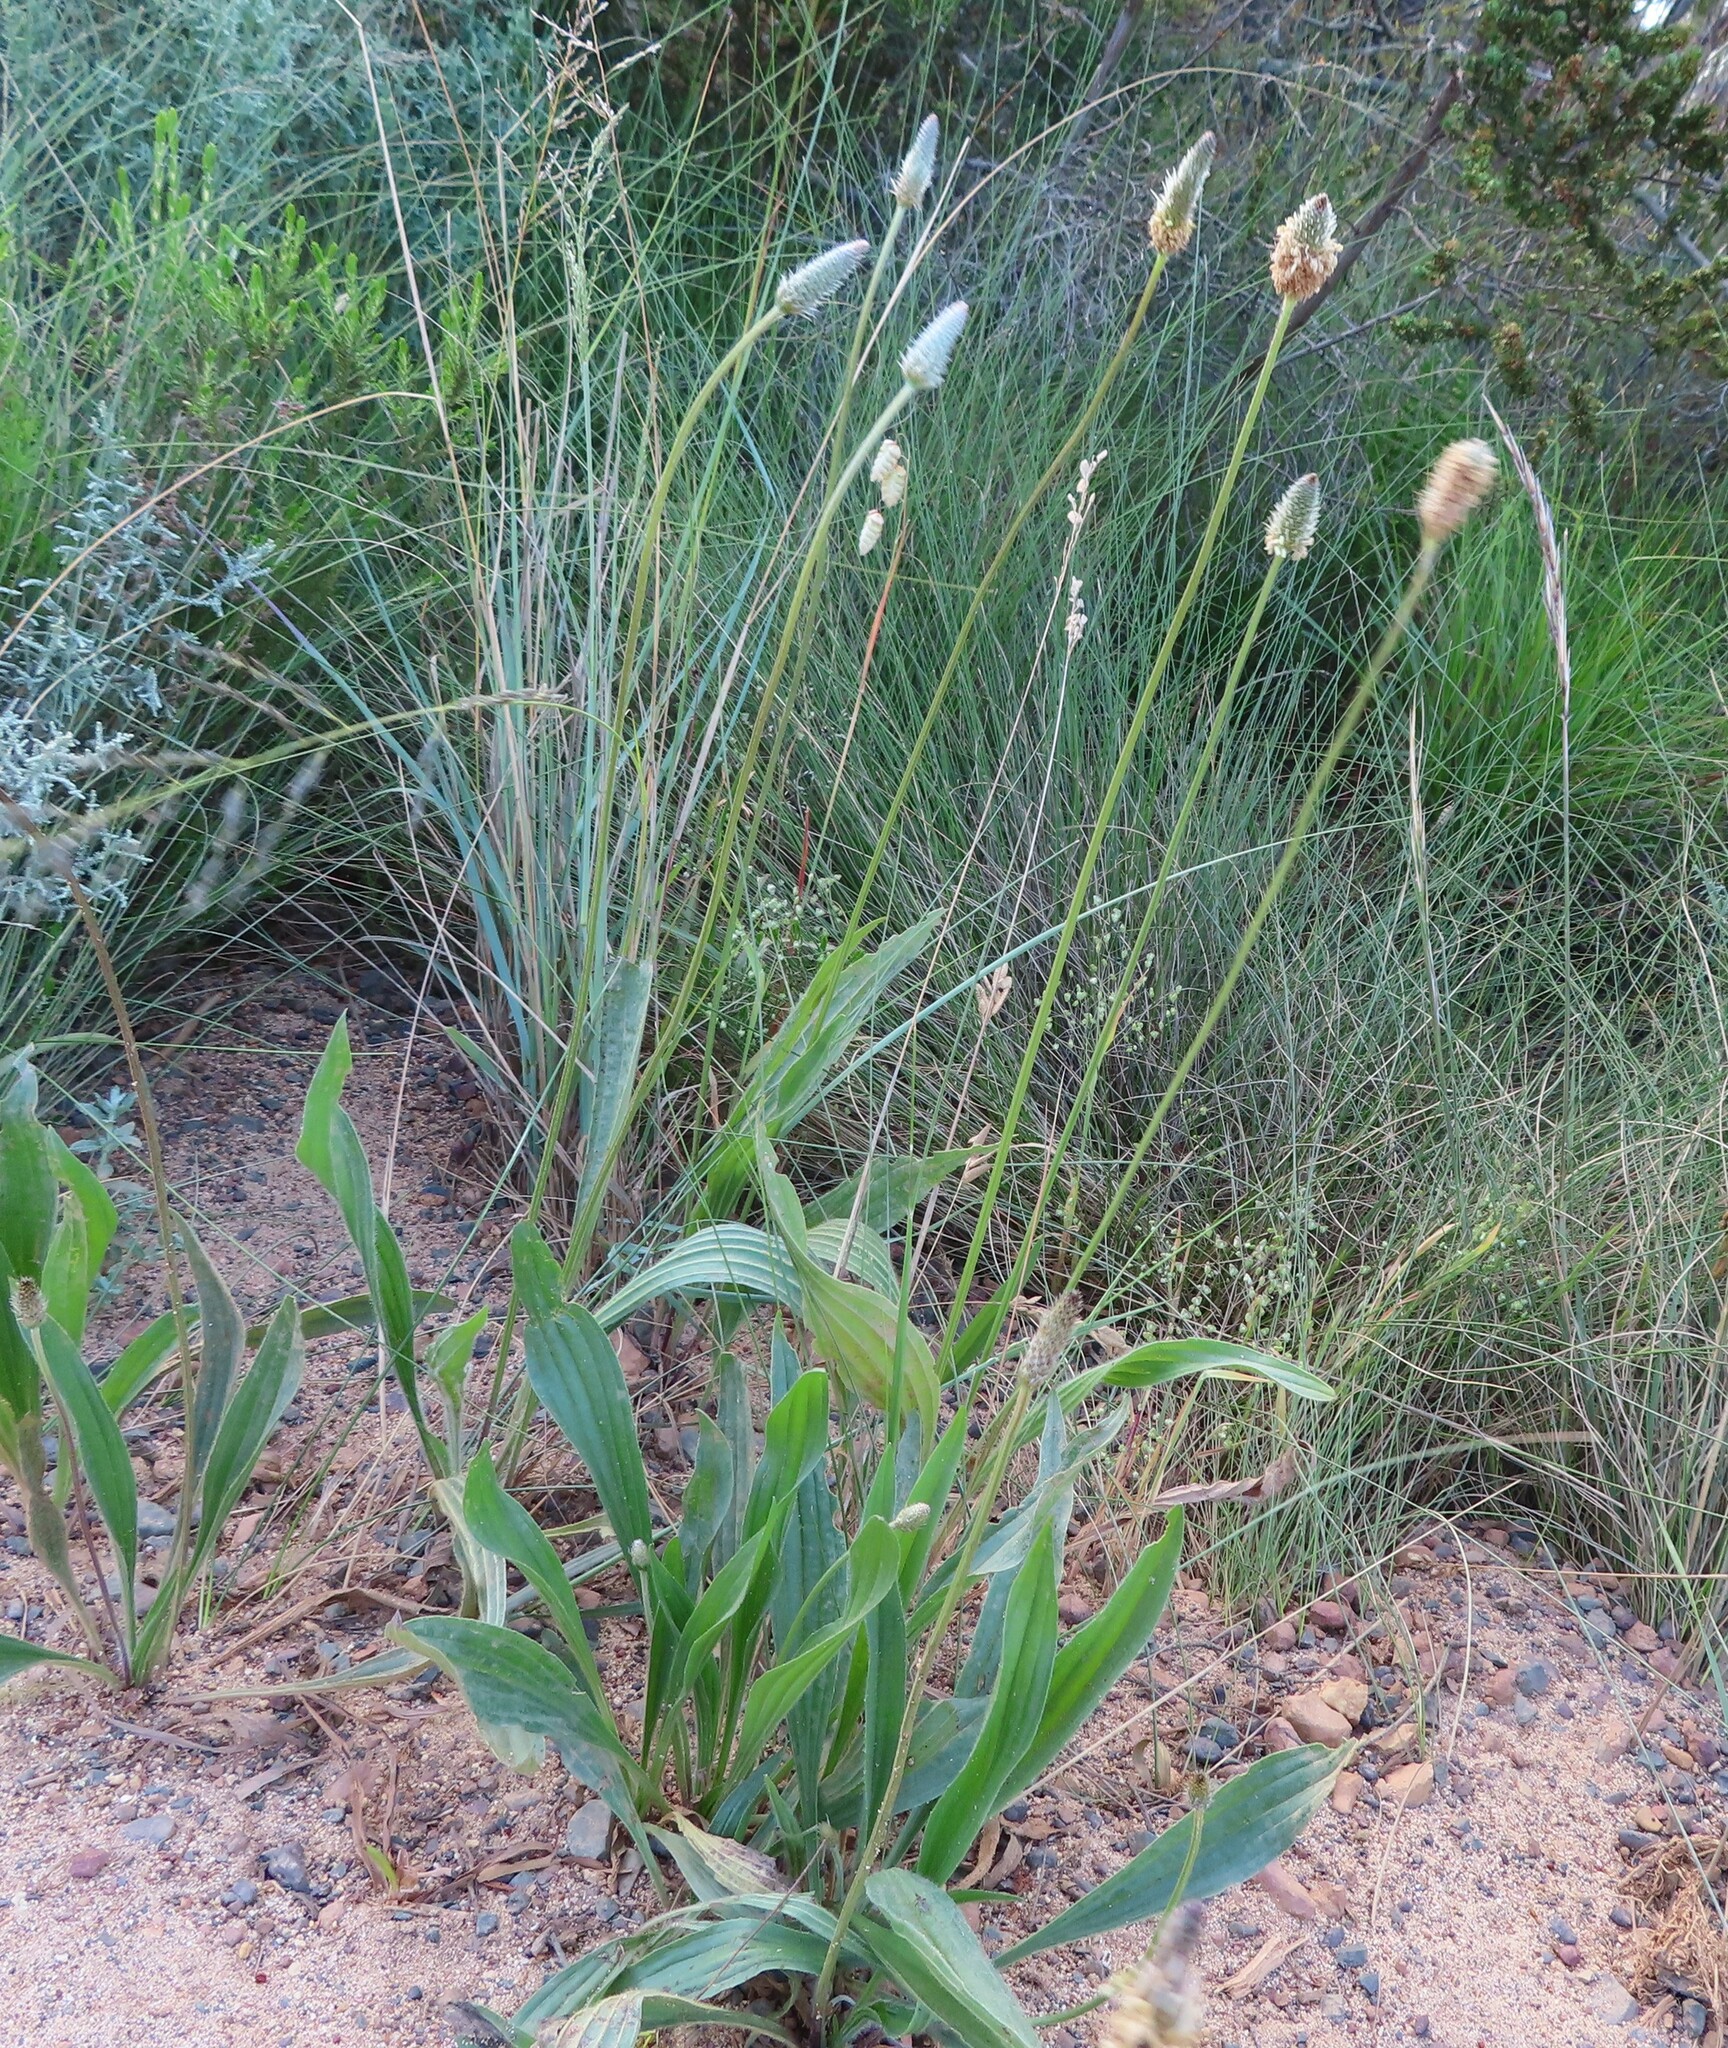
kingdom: Plantae
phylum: Tracheophyta
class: Magnoliopsida
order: Lamiales
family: Plantaginaceae
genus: Plantago
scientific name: Plantago lanceolata
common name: Ribwort plantain
